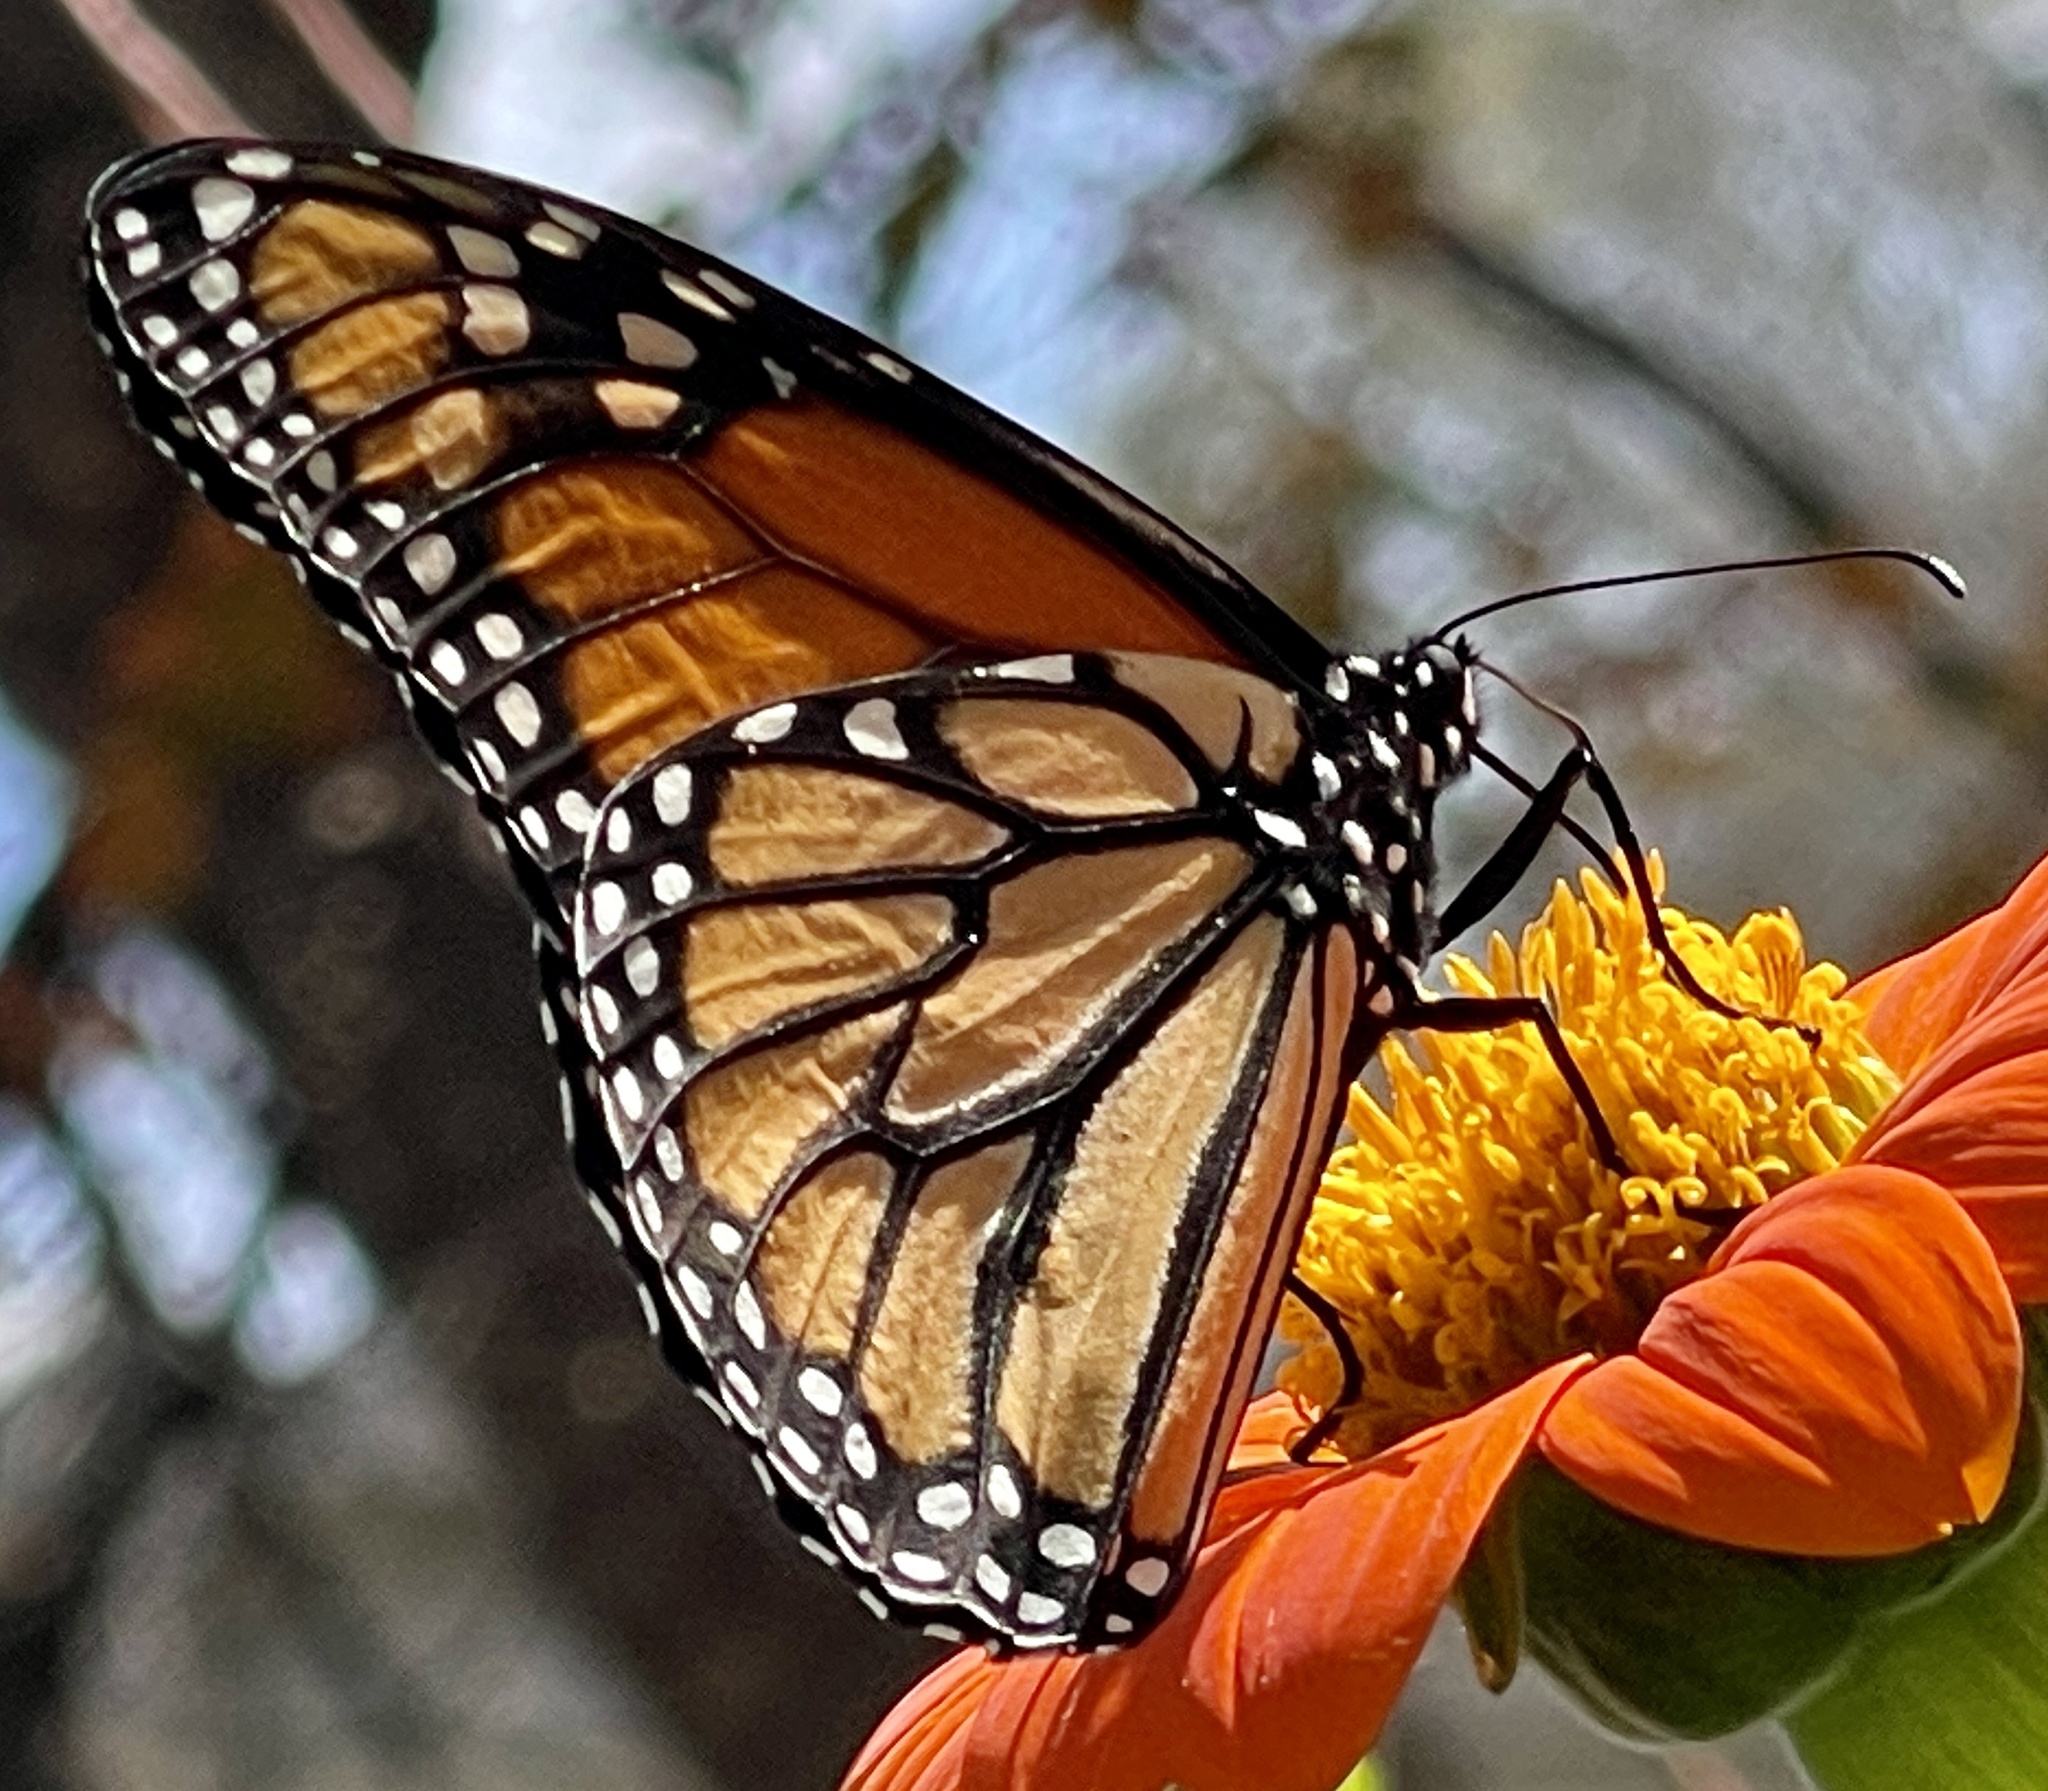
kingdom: Animalia
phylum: Arthropoda
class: Insecta
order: Lepidoptera
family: Nymphalidae
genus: Danaus
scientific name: Danaus plexippus
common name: Monarch
